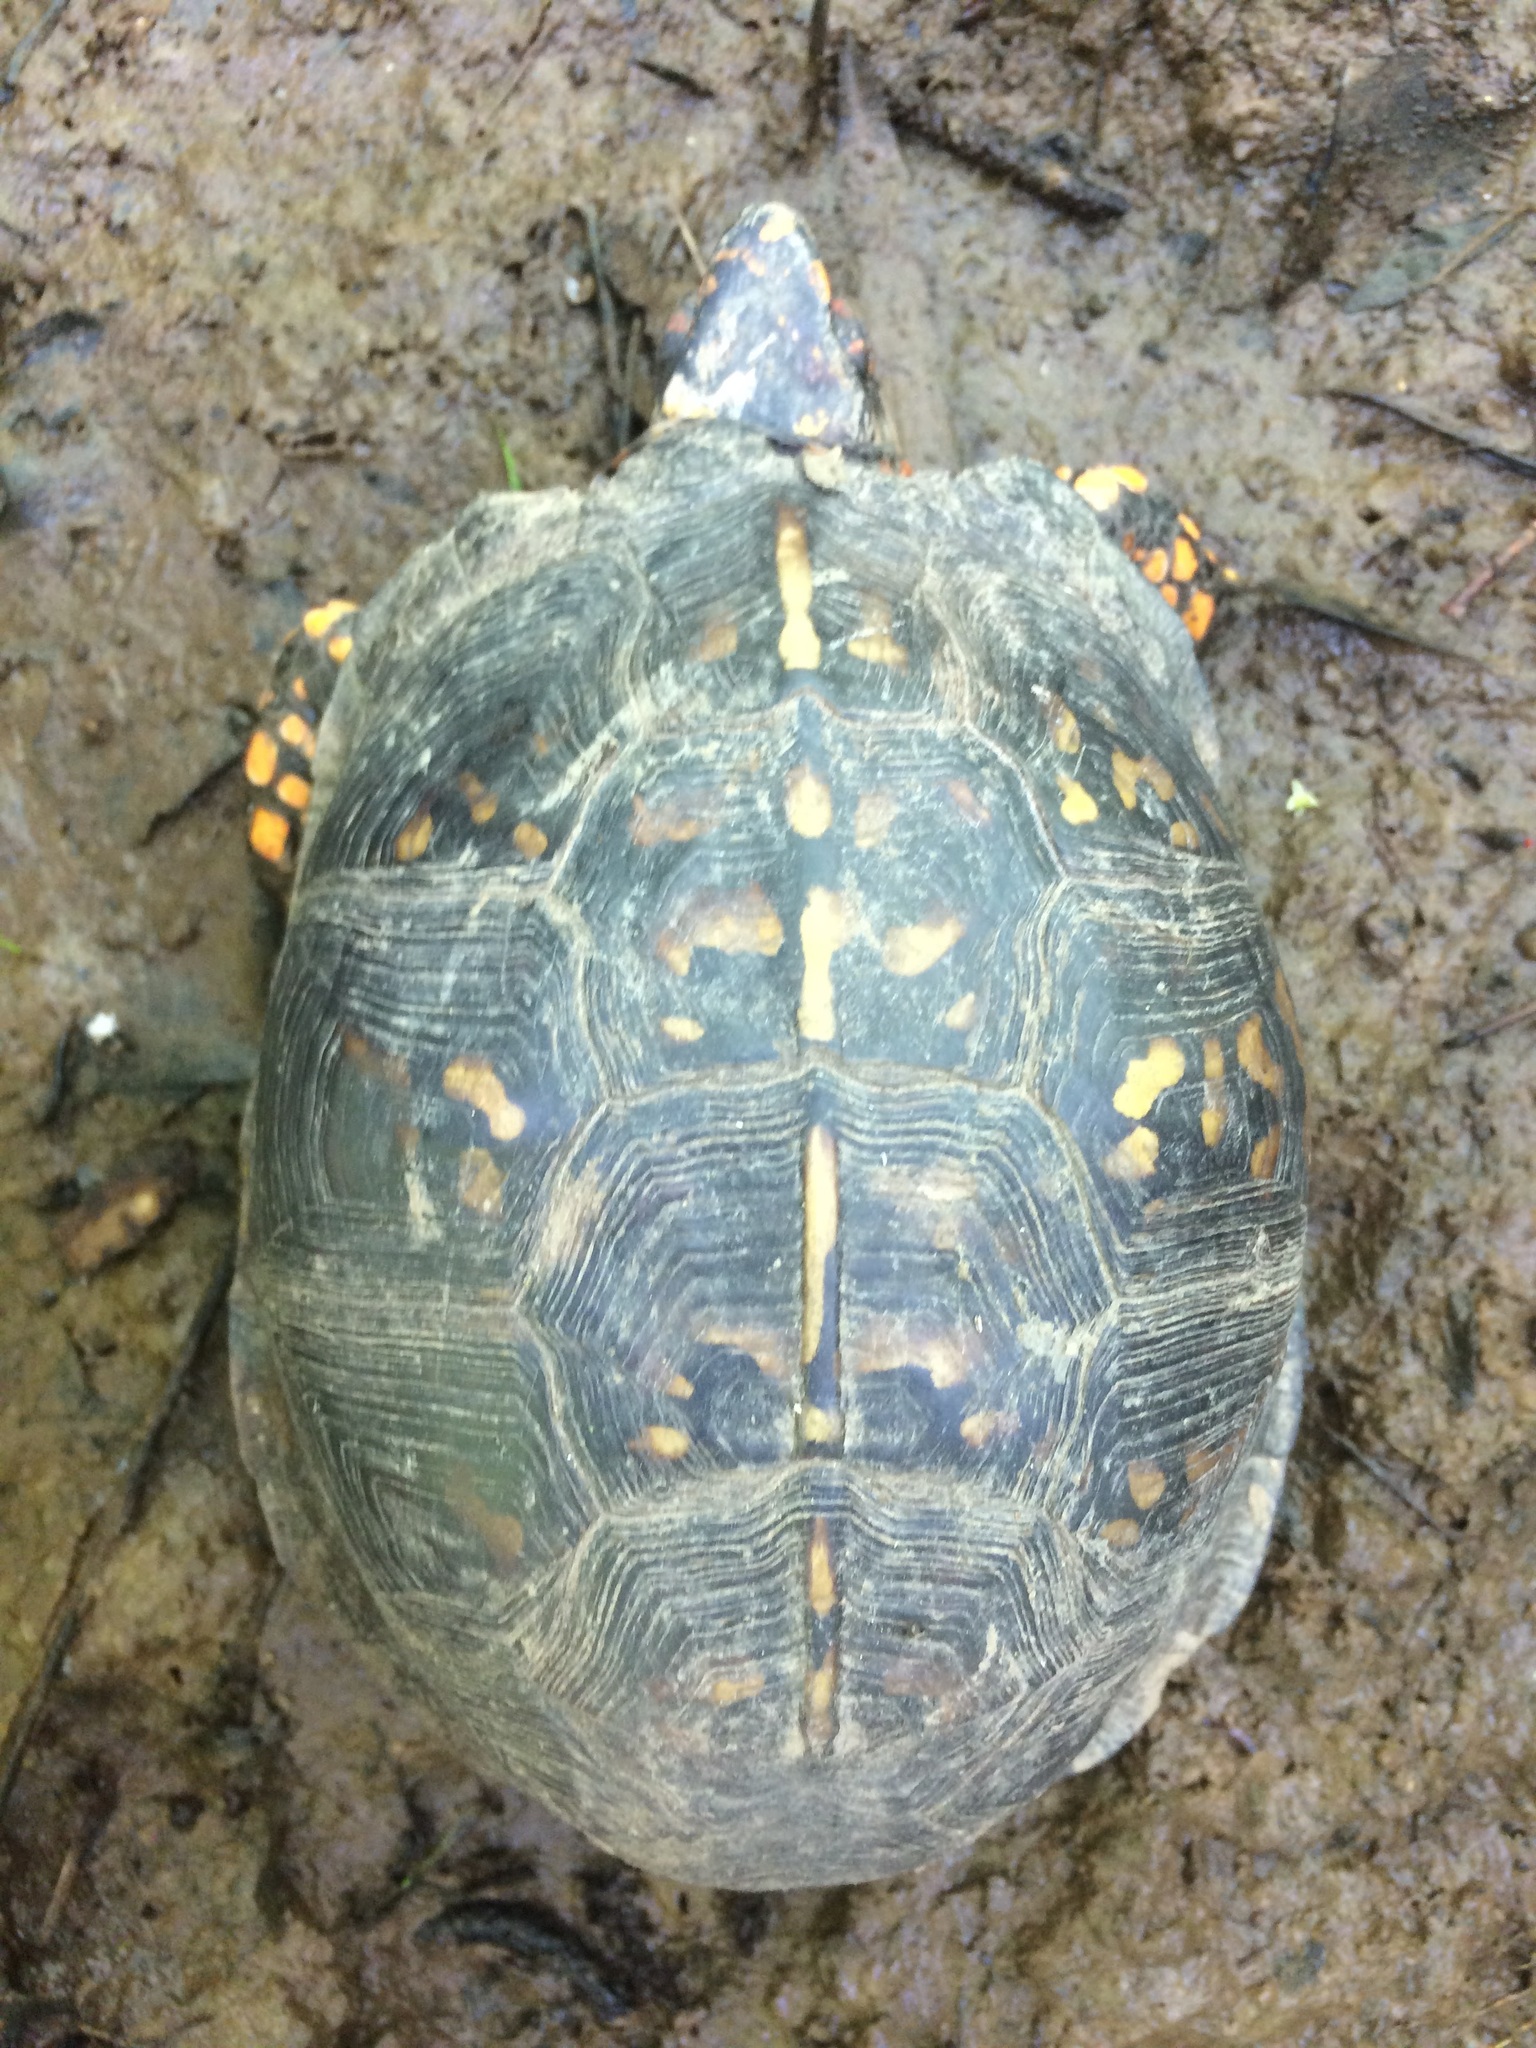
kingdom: Animalia
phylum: Chordata
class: Testudines
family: Emydidae
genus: Terrapene
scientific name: Terrapene carolina
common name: Common box turtle
